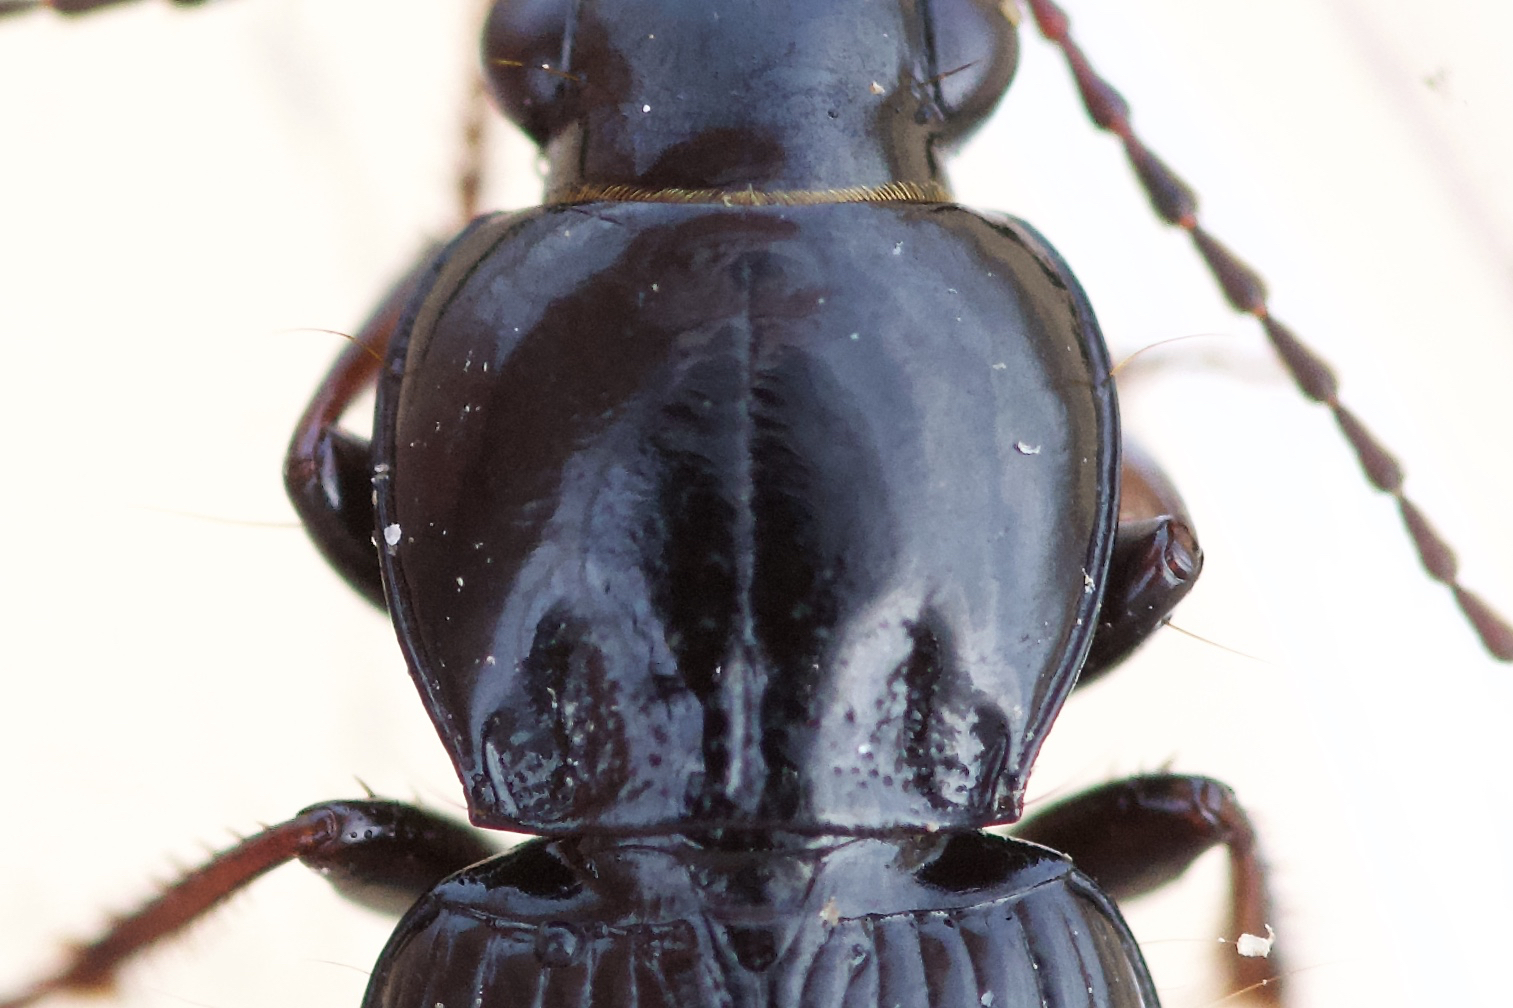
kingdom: Animalia
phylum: Arthropoda
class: Insecta
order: Coleoptera
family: Carabidae
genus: Pterostichus
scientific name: Pterostichus luctuosus
